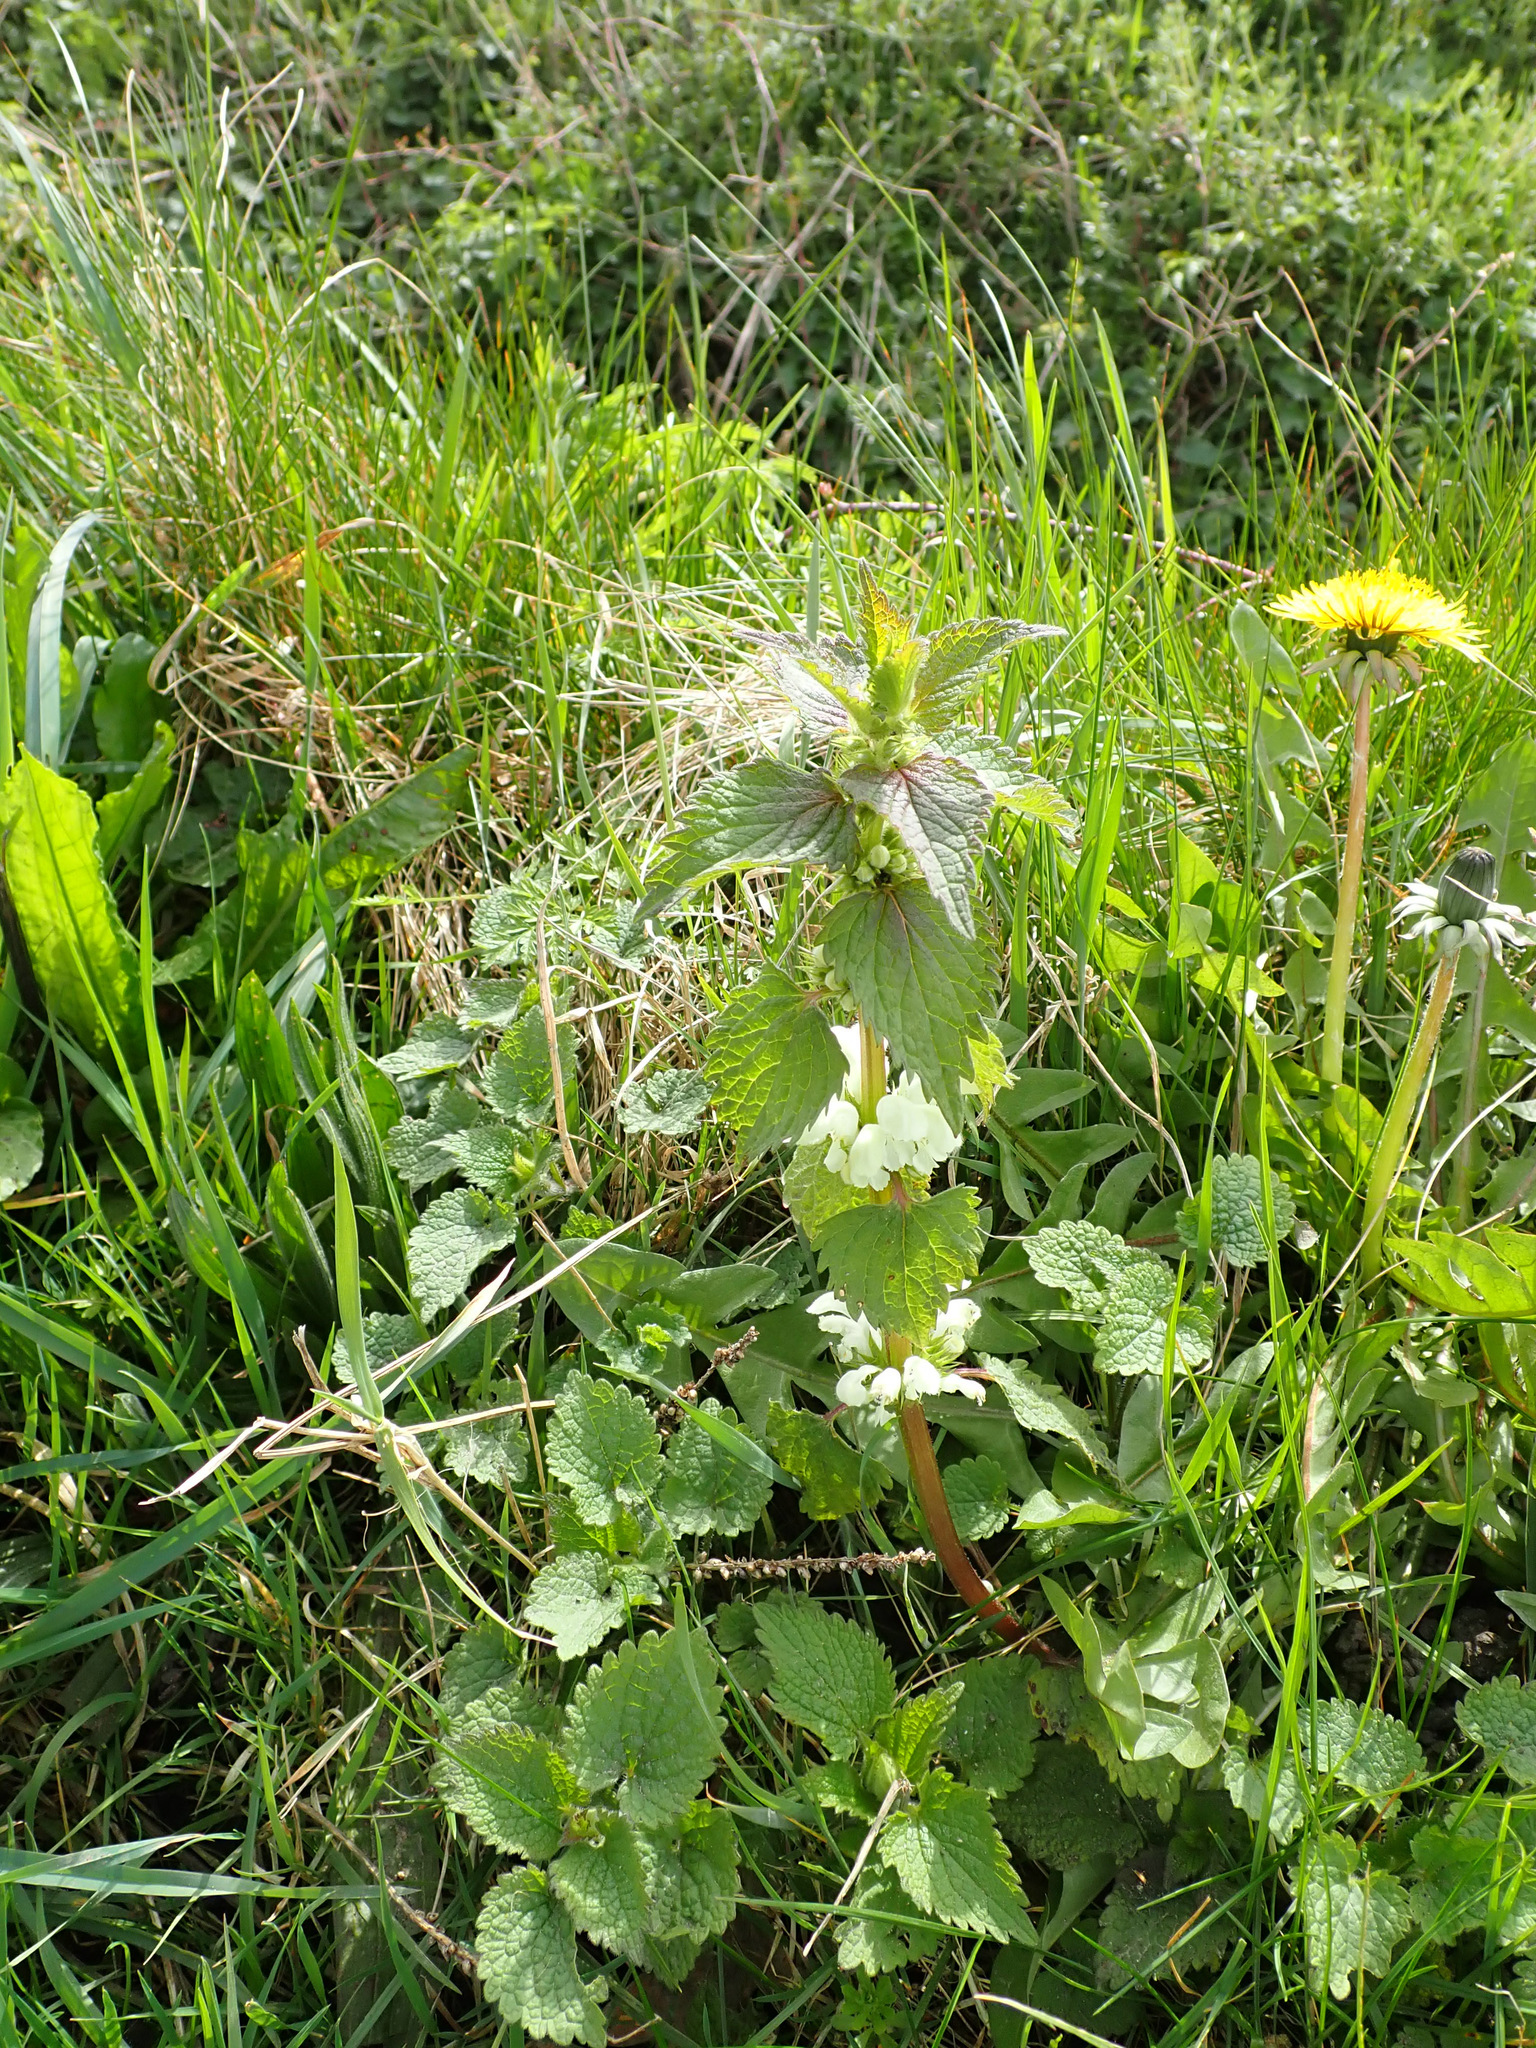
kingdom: Plantae
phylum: Tracheophyta
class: Magnoliopsida
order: Lamiales
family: Lamiaceae
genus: Lamium
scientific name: Lamium album
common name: White dead-nettle
